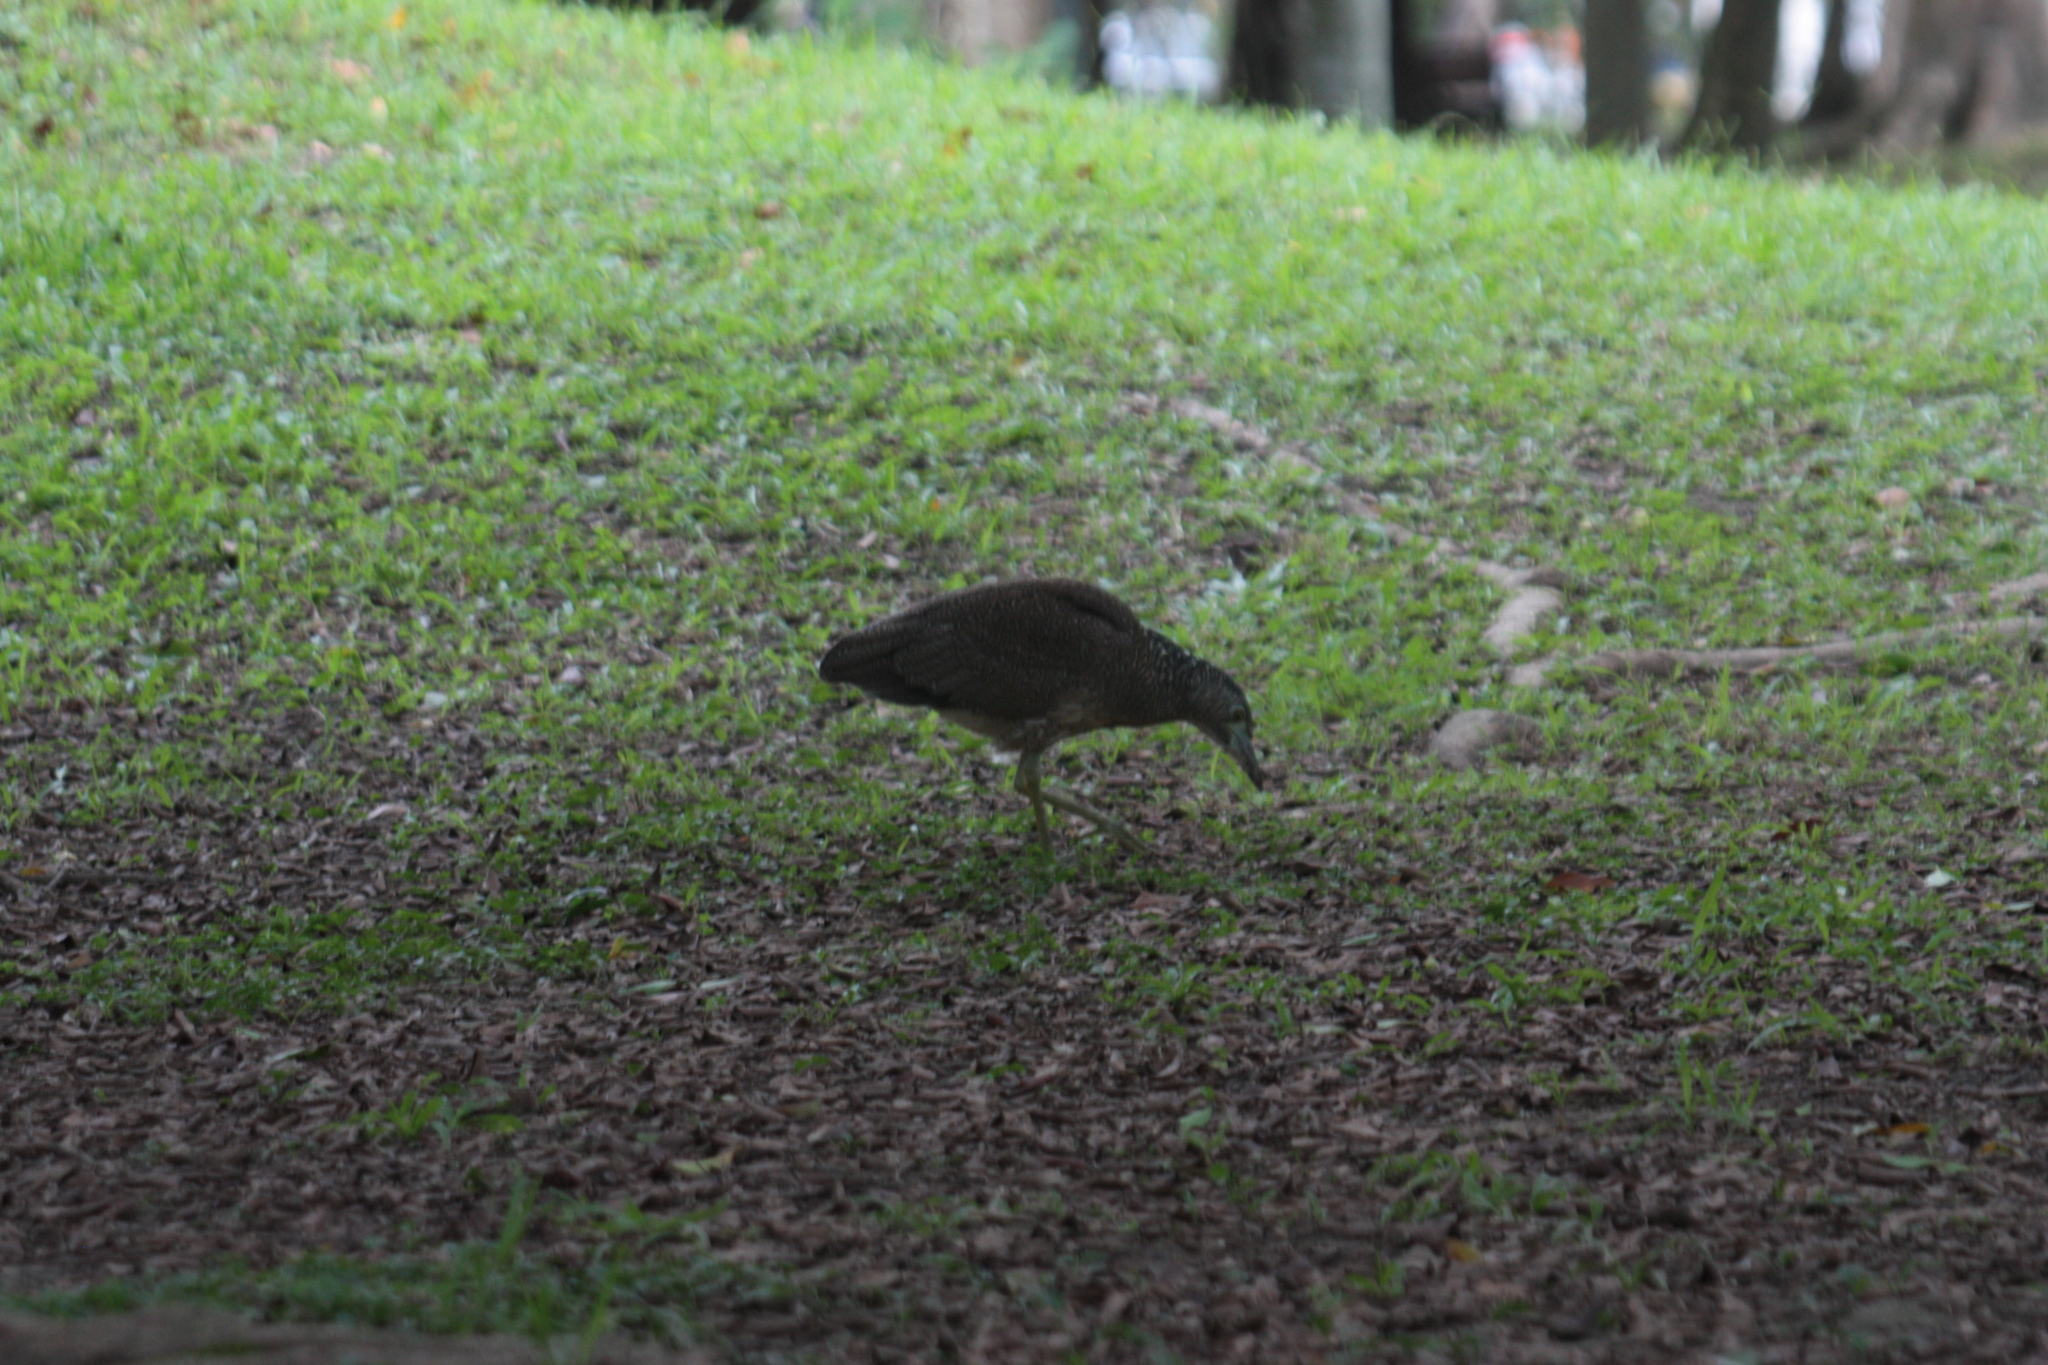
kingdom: Animalia
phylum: Chordata
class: Aves
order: Pelecaniformes
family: Ardeidae
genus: Gorsachius
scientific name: Gorsachius melanolophus
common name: Malayan night heron
